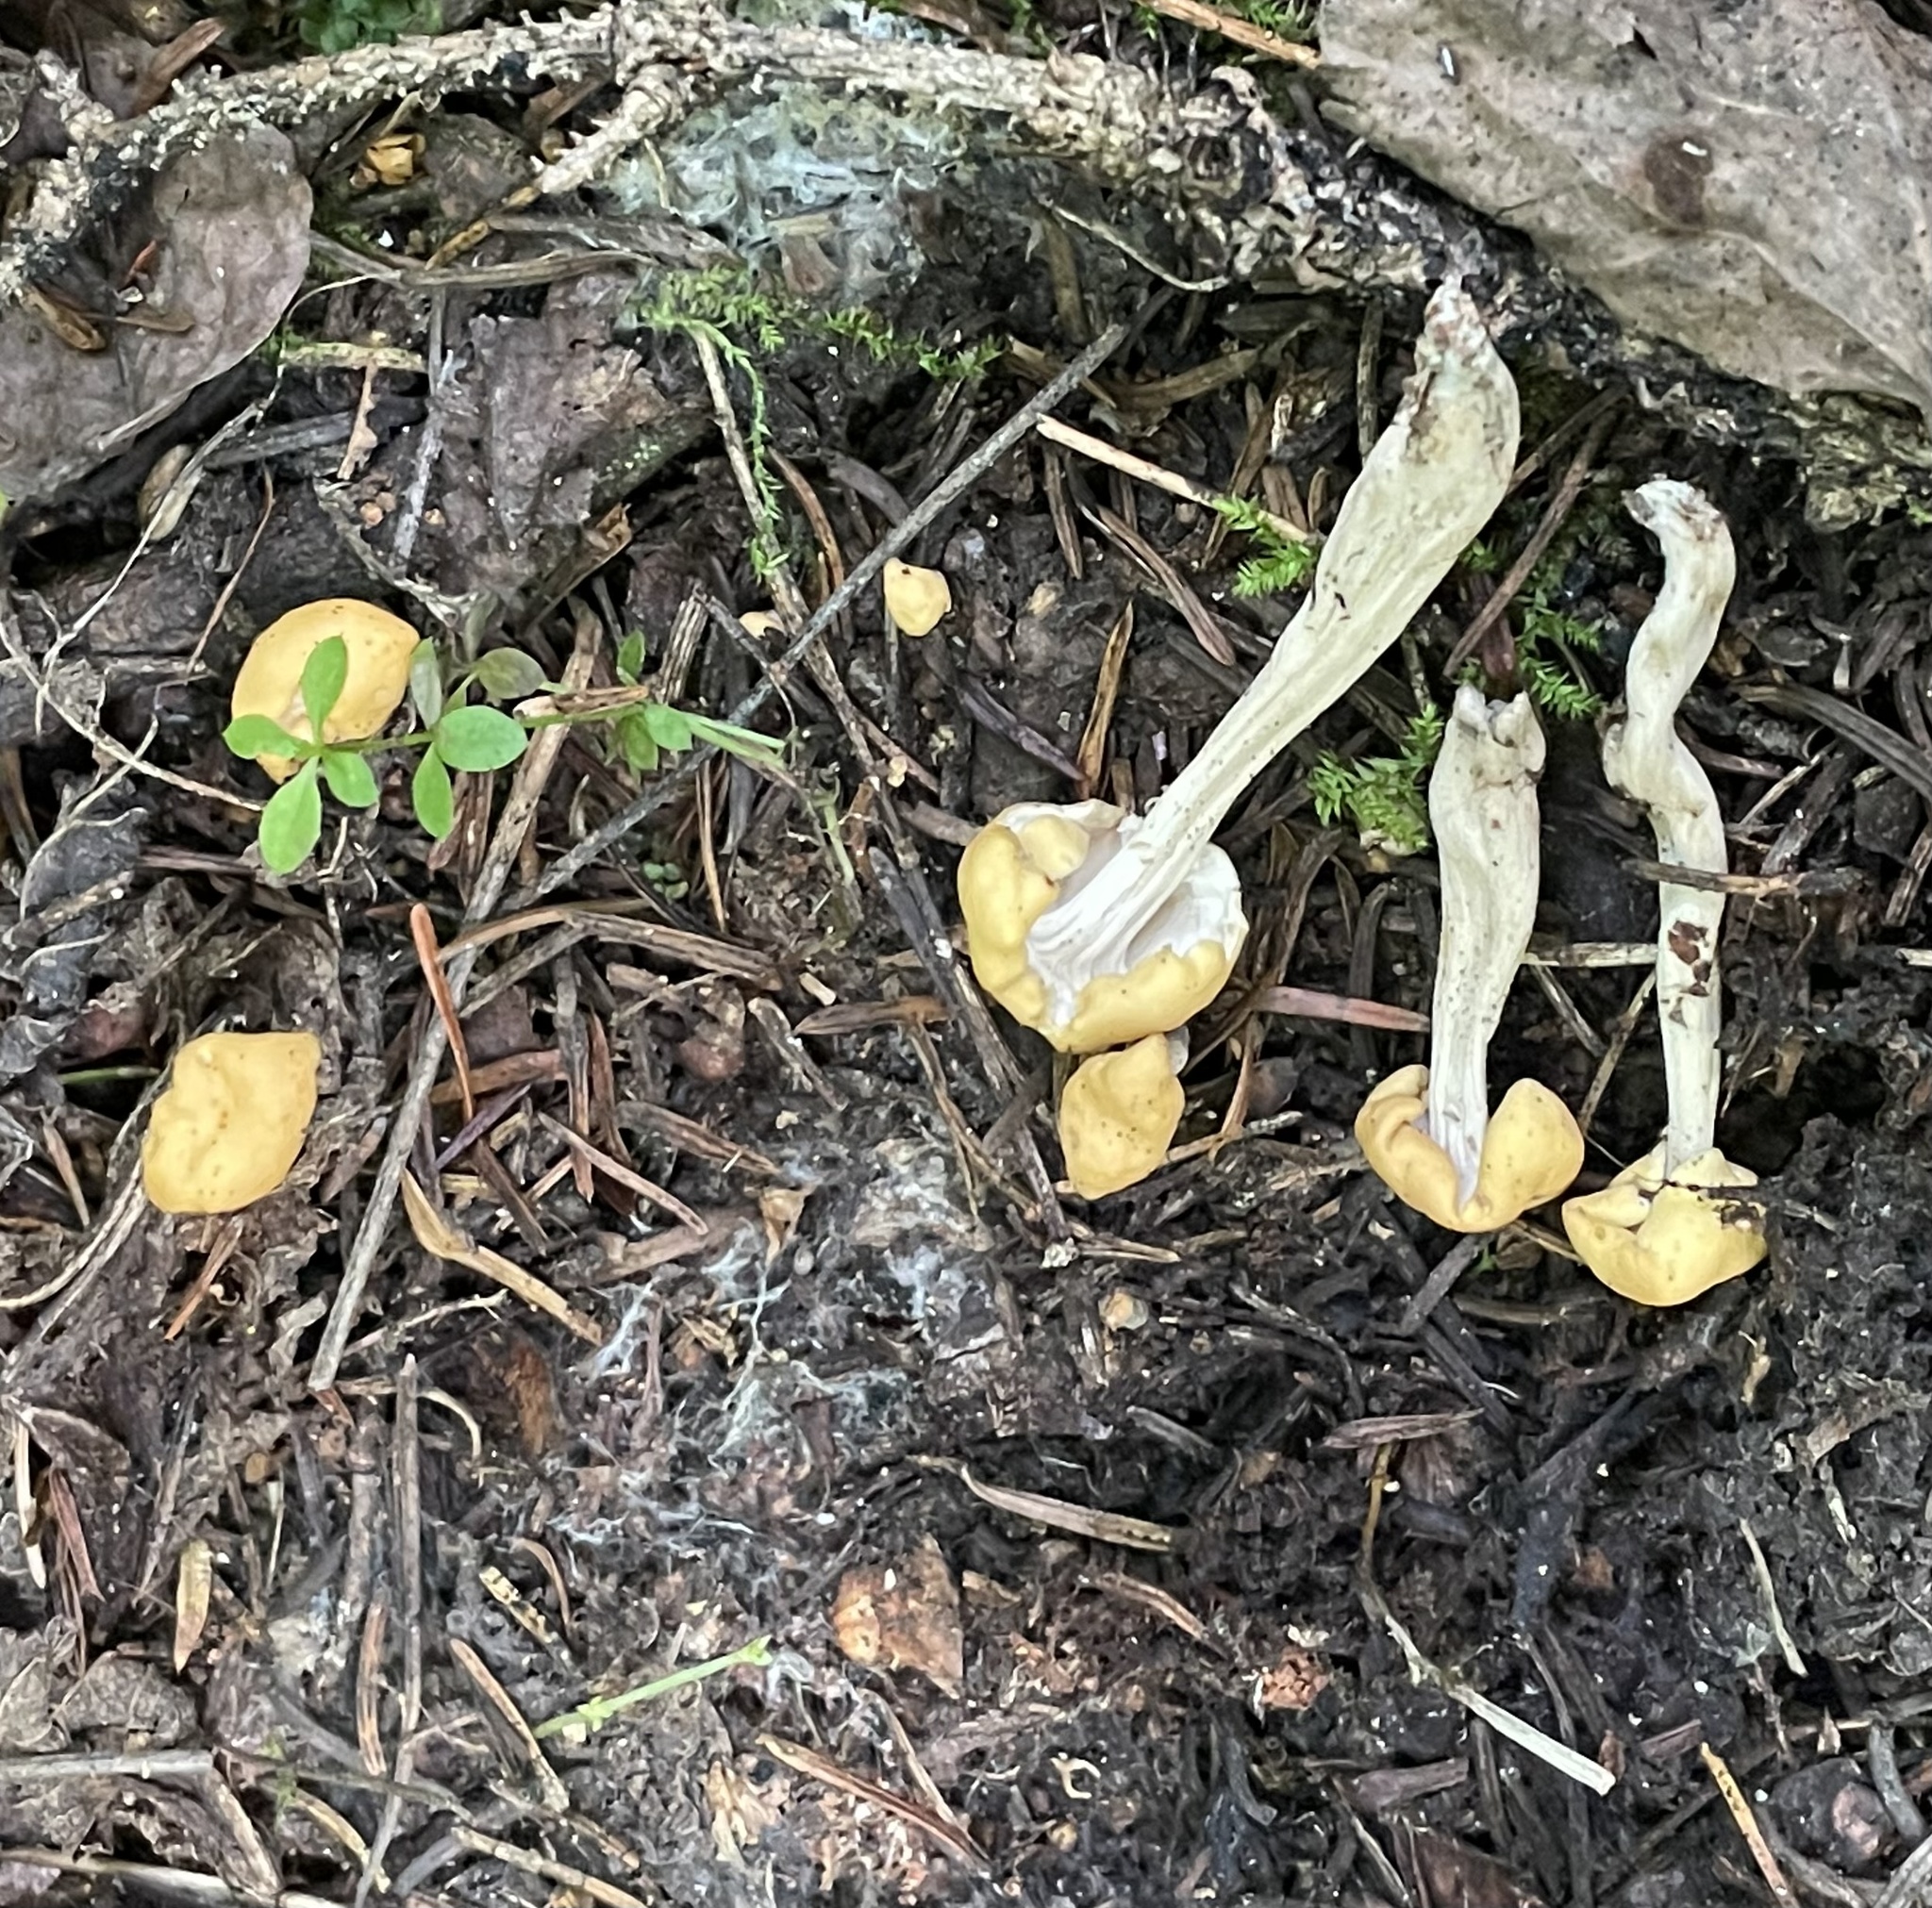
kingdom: Fungi
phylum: Ascomycota
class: Leotiomycetes
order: Rhytismatales
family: Cudoniaceae
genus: Cudonia
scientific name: Cudonia lutea
